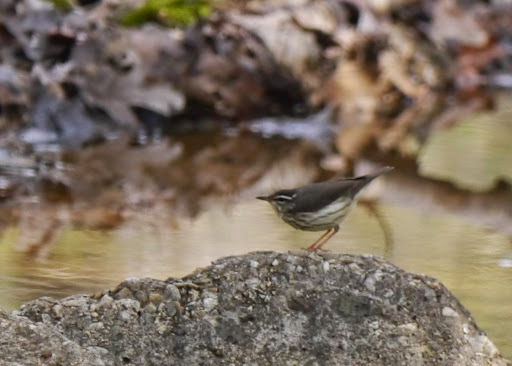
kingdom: Animalia
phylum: Chordata
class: Aves
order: Passeriformes
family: Parulidae
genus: Parkesia
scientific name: Parkesia motacilla
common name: Louisiana waterthrush
